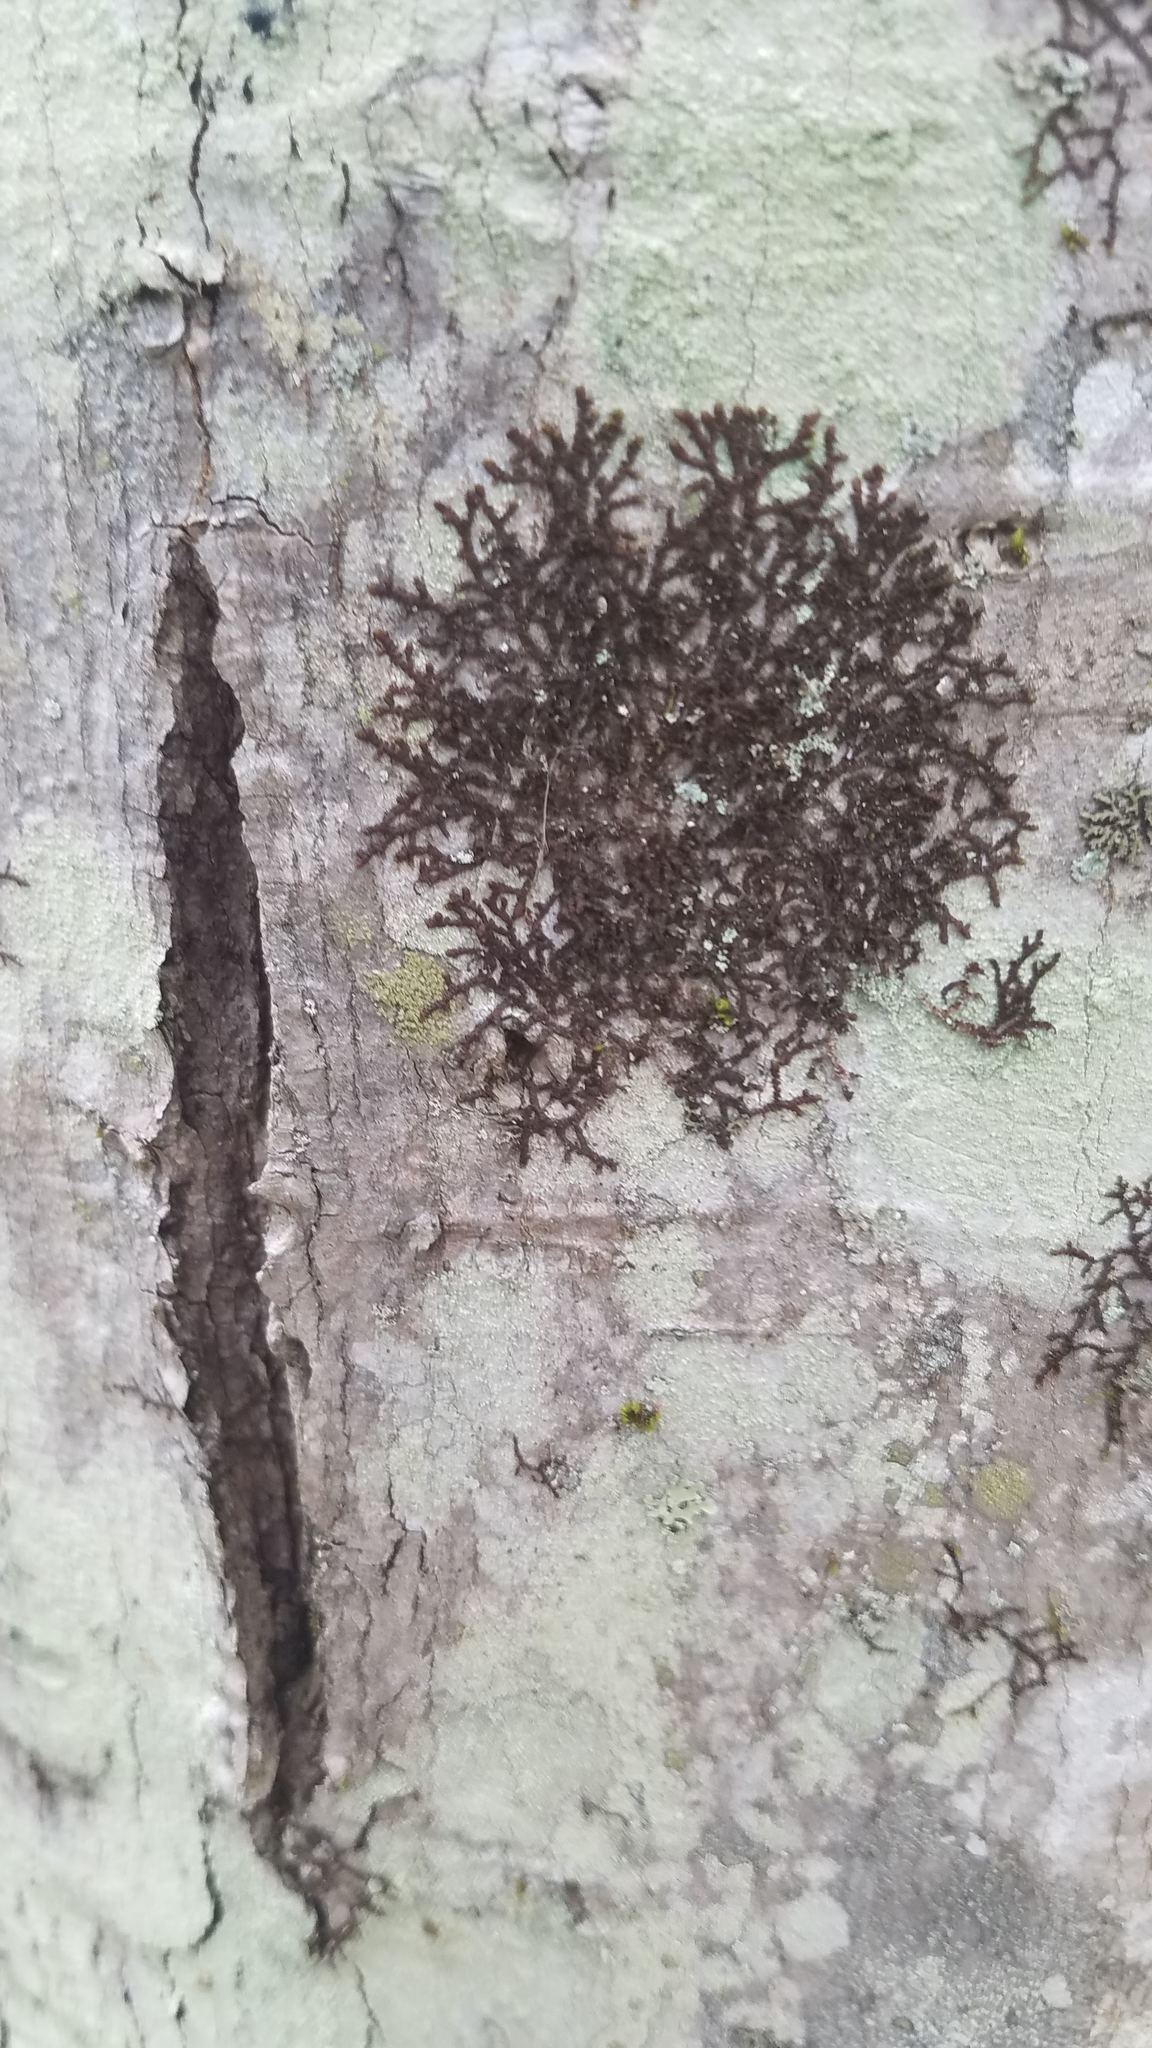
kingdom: Plantae
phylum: Marchantiophyta
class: Jungermanniopsida
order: Porellales
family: Frullaniaceae
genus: Frullania
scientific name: Frullania eboracensis
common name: New york scalewort
